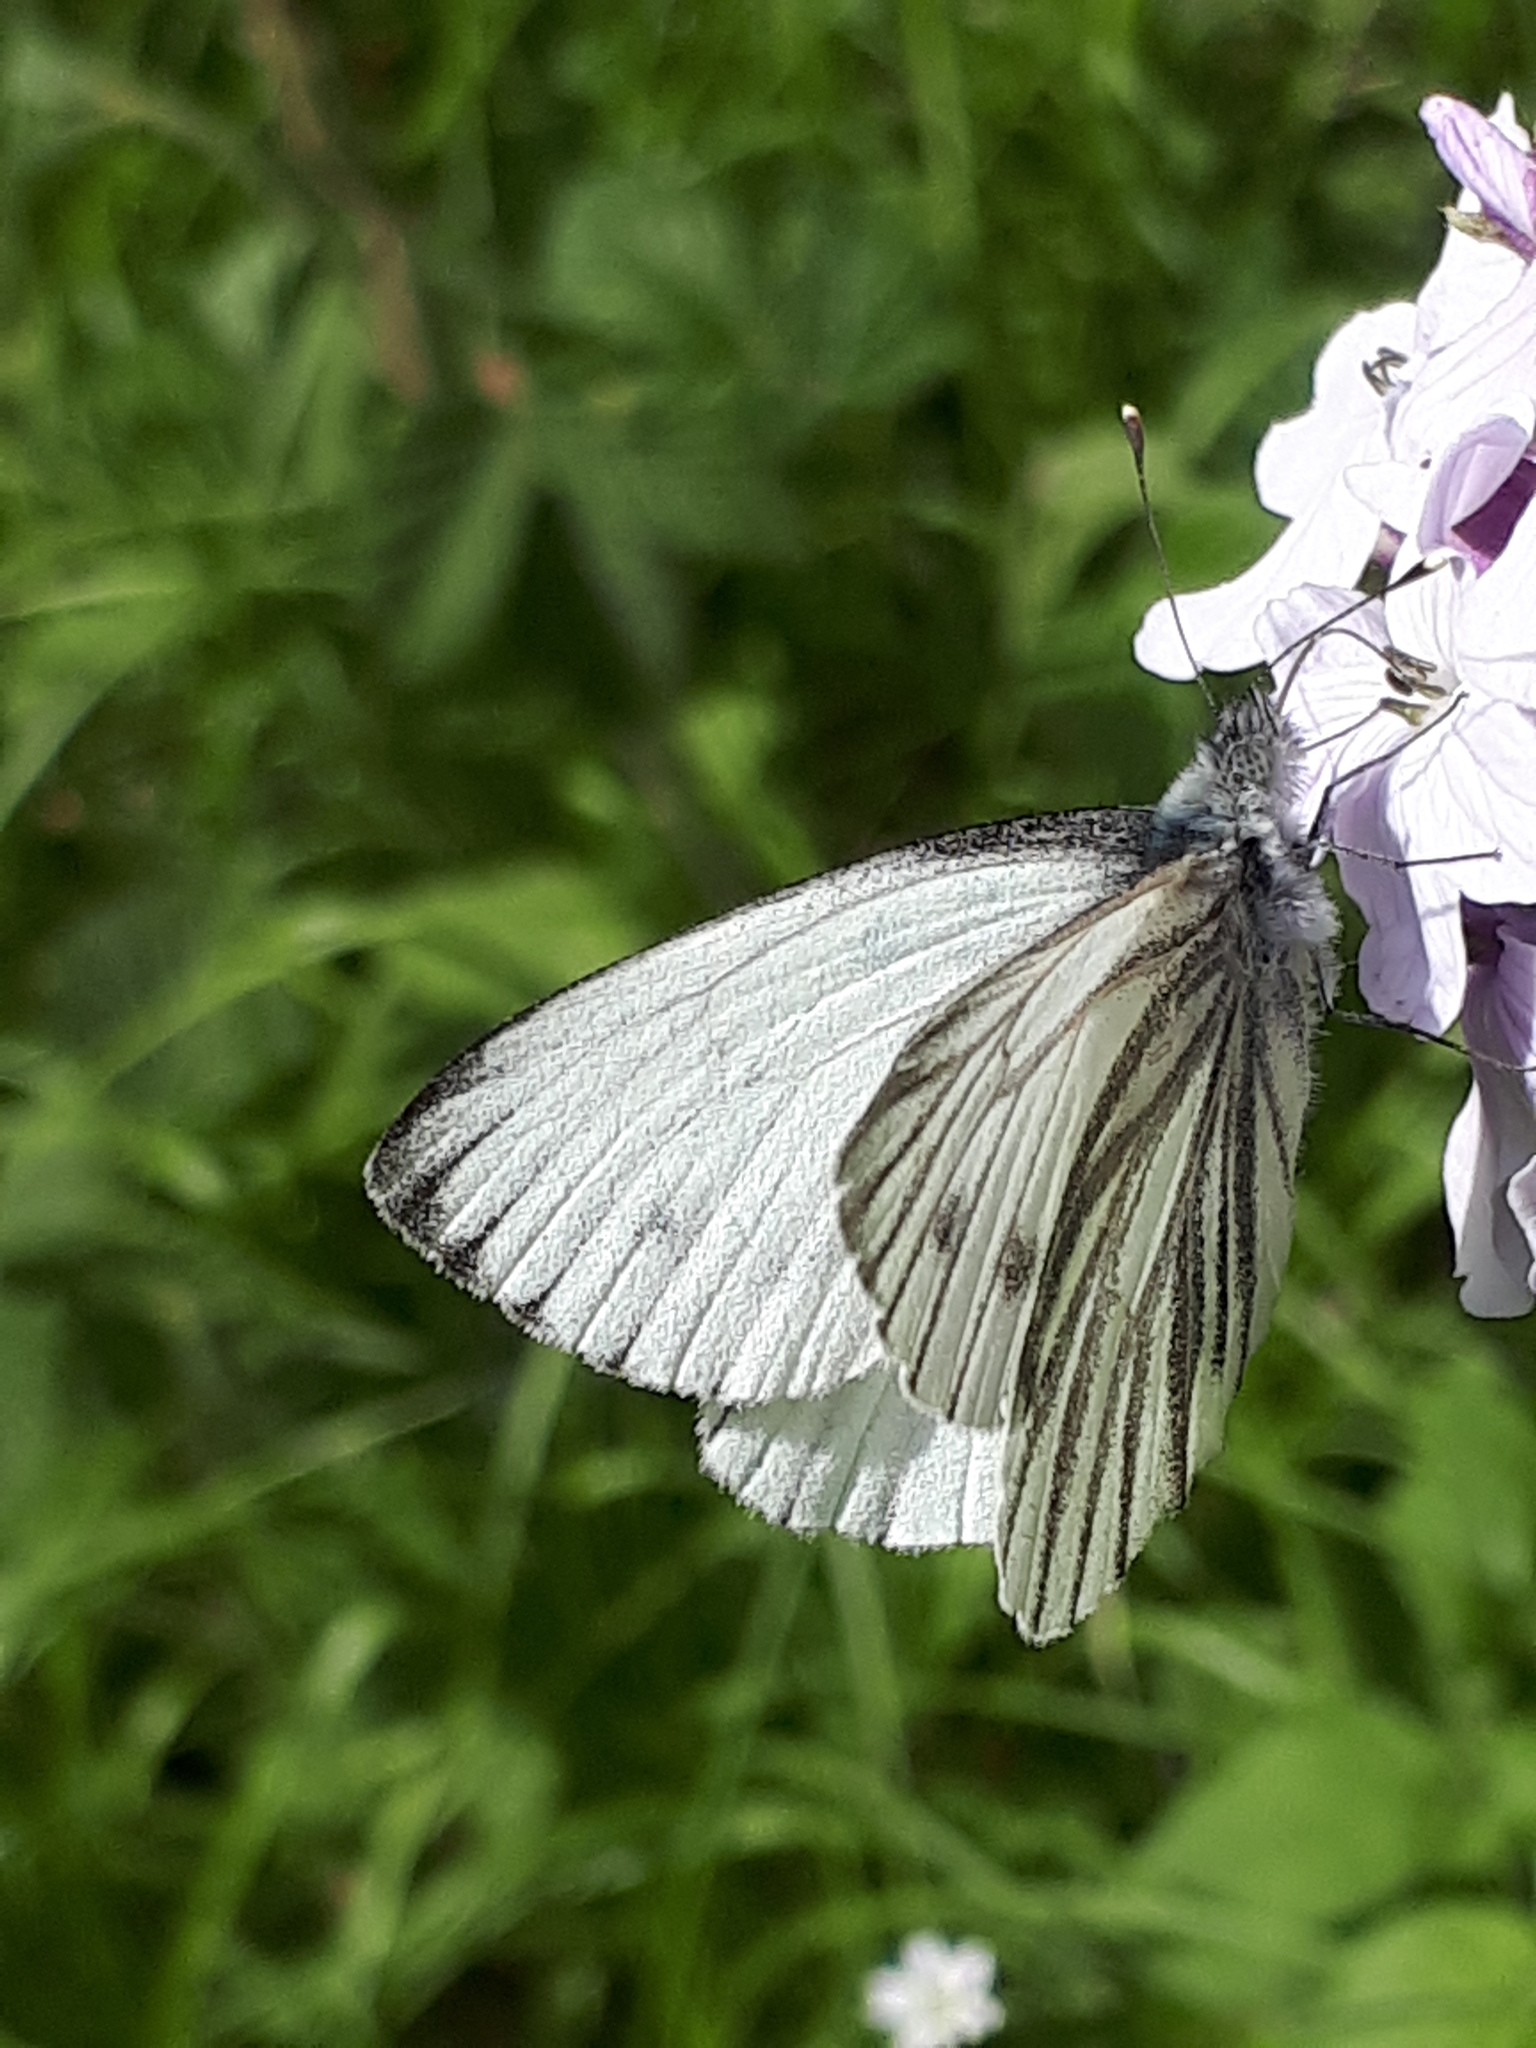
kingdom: Animalia
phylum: Arthropoda
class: Insecta
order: Lepidoptera
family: Pieridae
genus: Pieris
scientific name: Pieris napi
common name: Green-veined white
